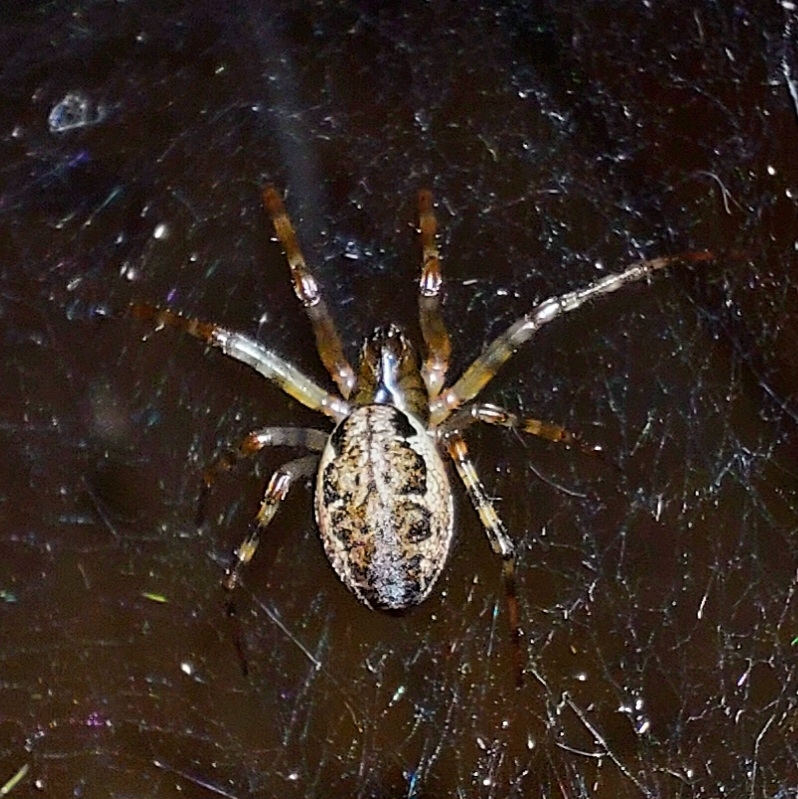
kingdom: Animalia
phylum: Arthropoda
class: Arachnida
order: Araneae
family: Linyphiidae
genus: Neriene
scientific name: Neriene montana
